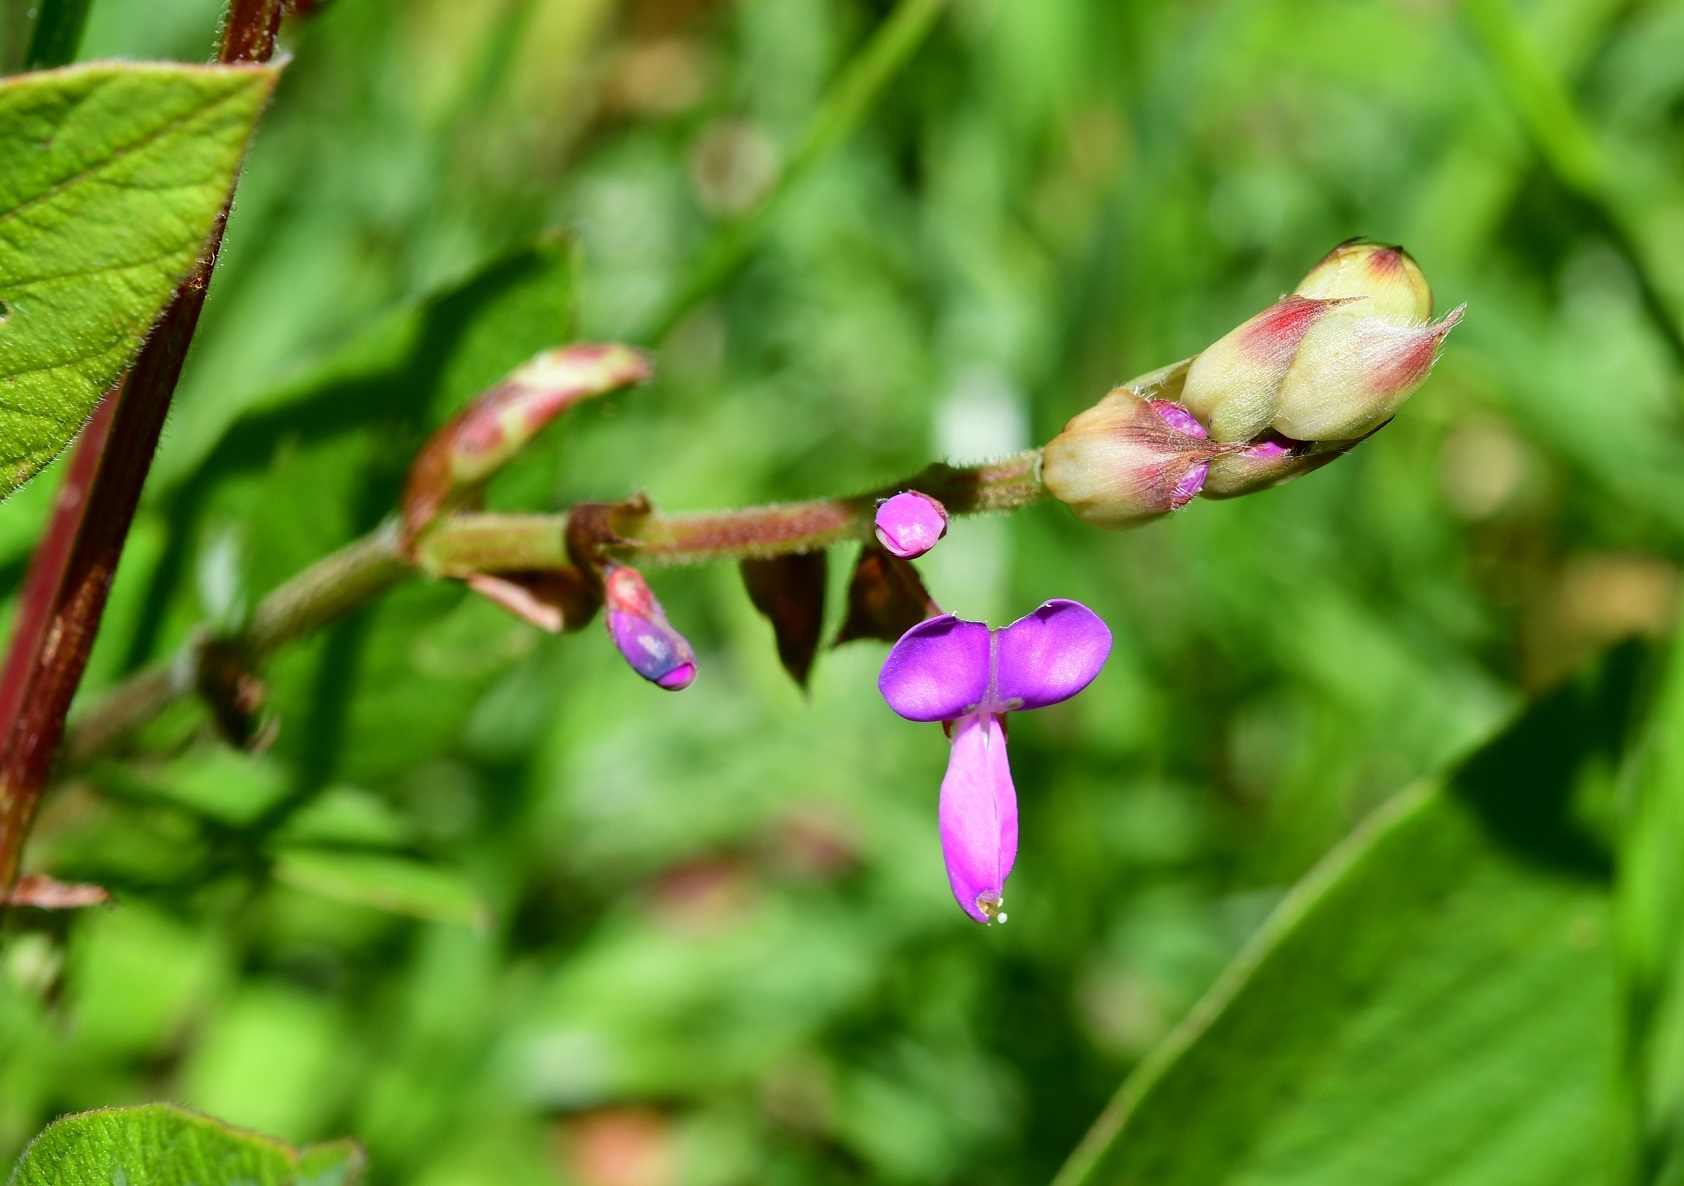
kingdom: Plantae
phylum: Tracheophyta
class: Magnoliopsida
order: Fabales
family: Fabaceae
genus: Desmodium
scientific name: Desmodium pringlei
